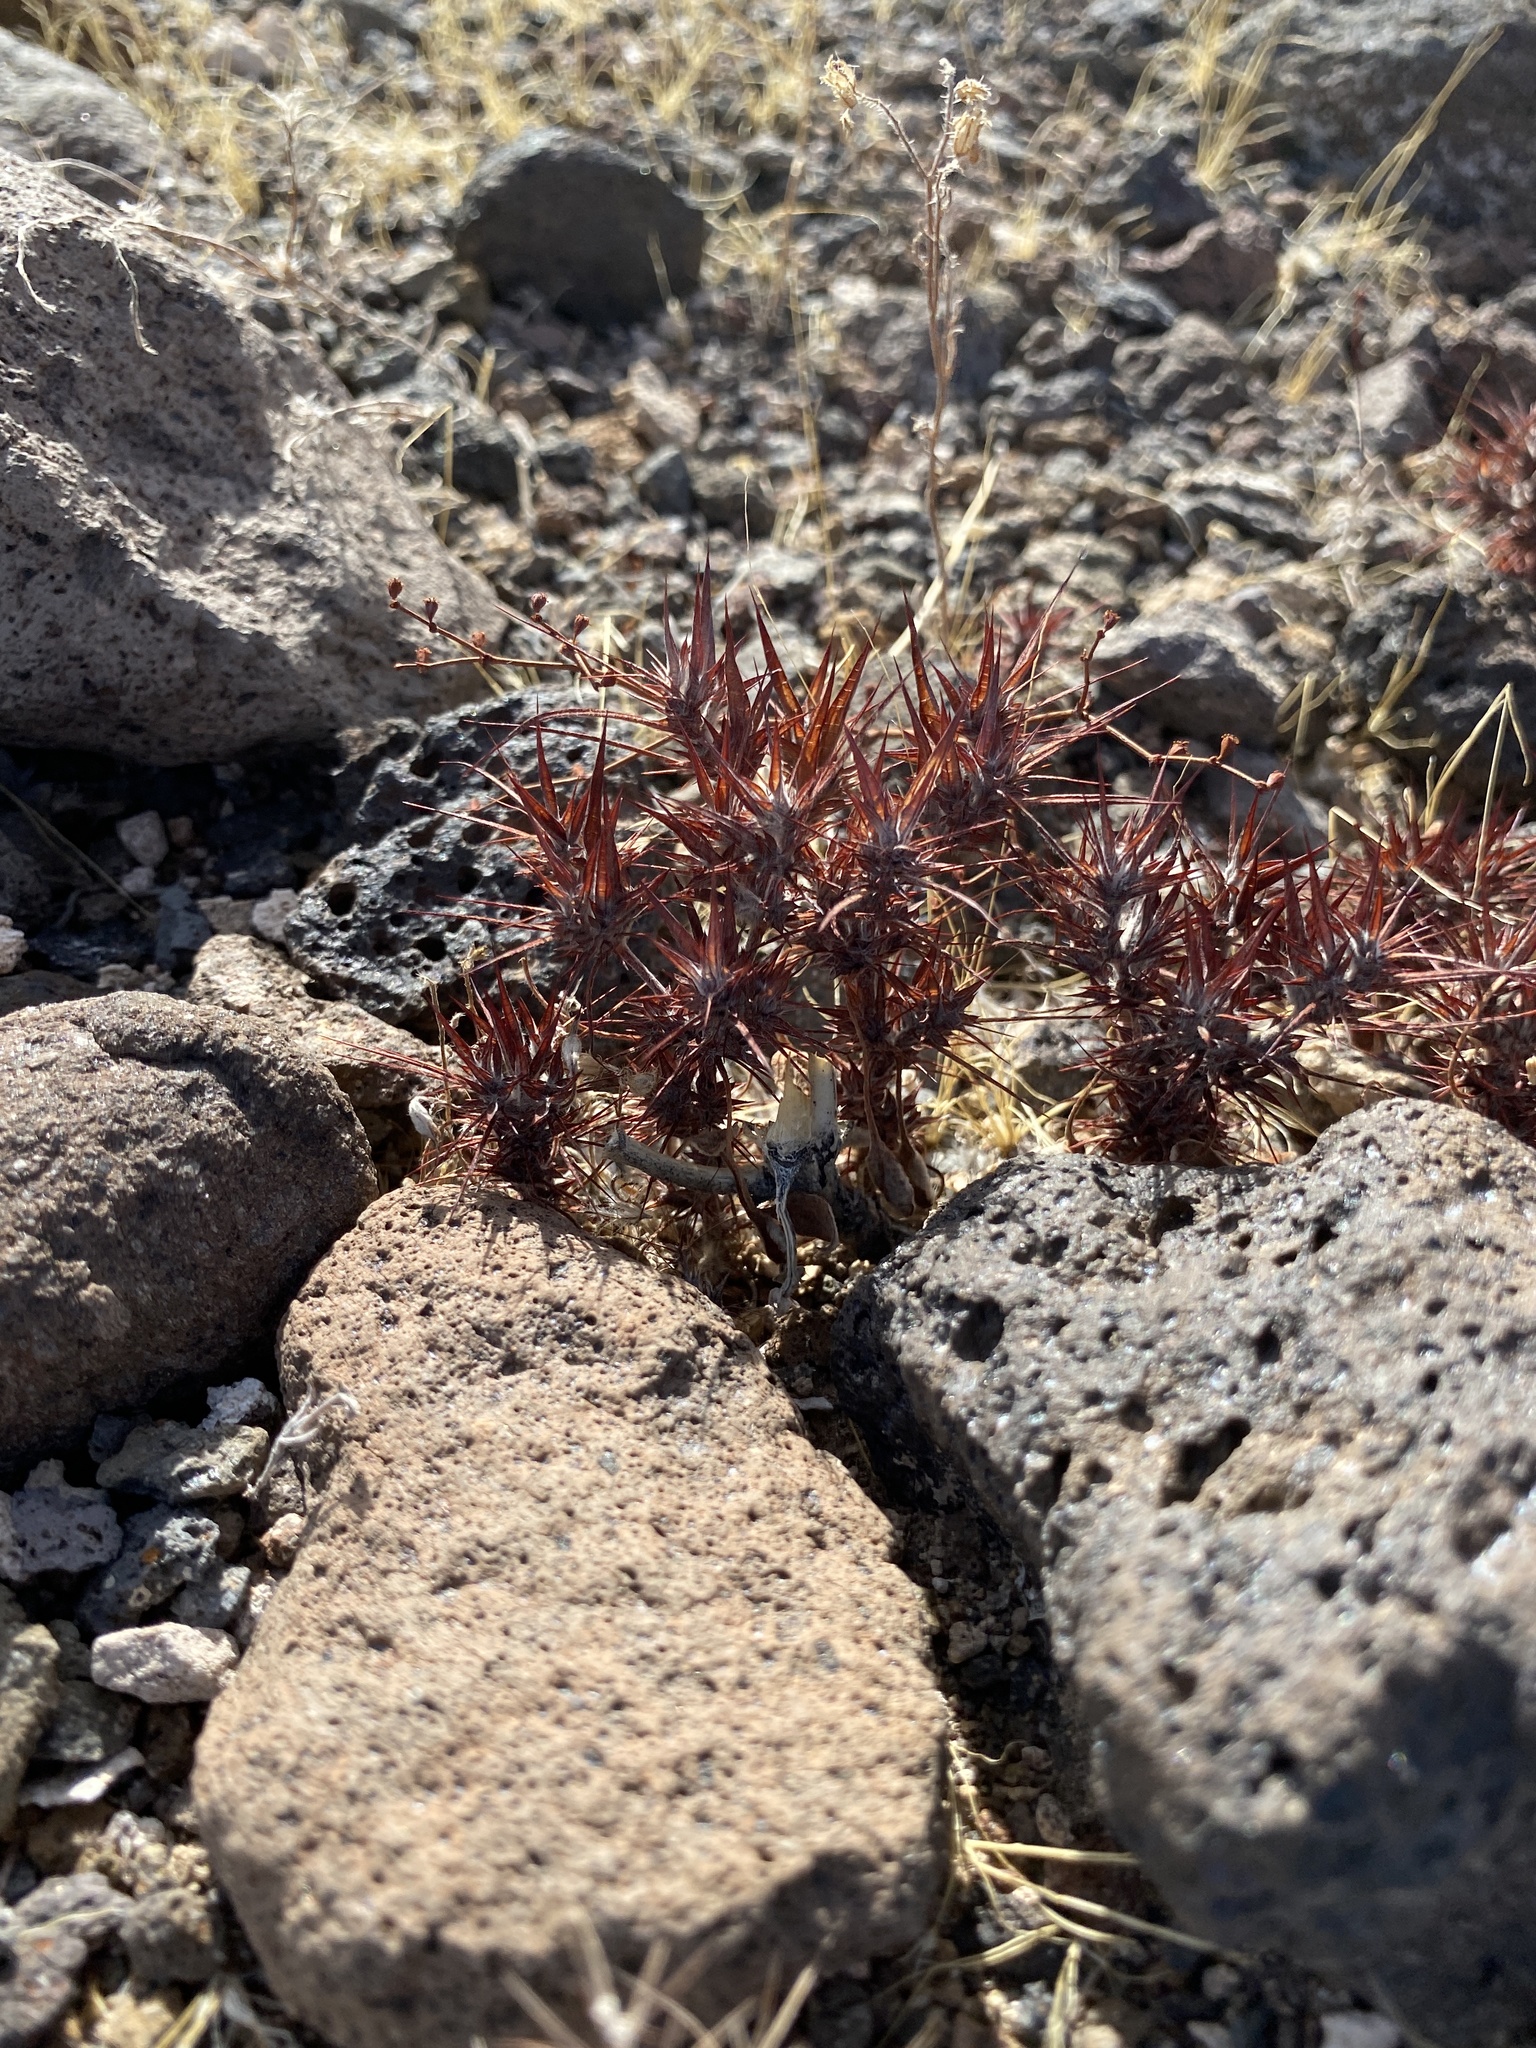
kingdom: Plantae
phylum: Tracheophyta
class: Magnoliopsida
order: Caryophyllales
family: Polygonaceae
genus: Chorizanthe
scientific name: Chorizanthe rigida
